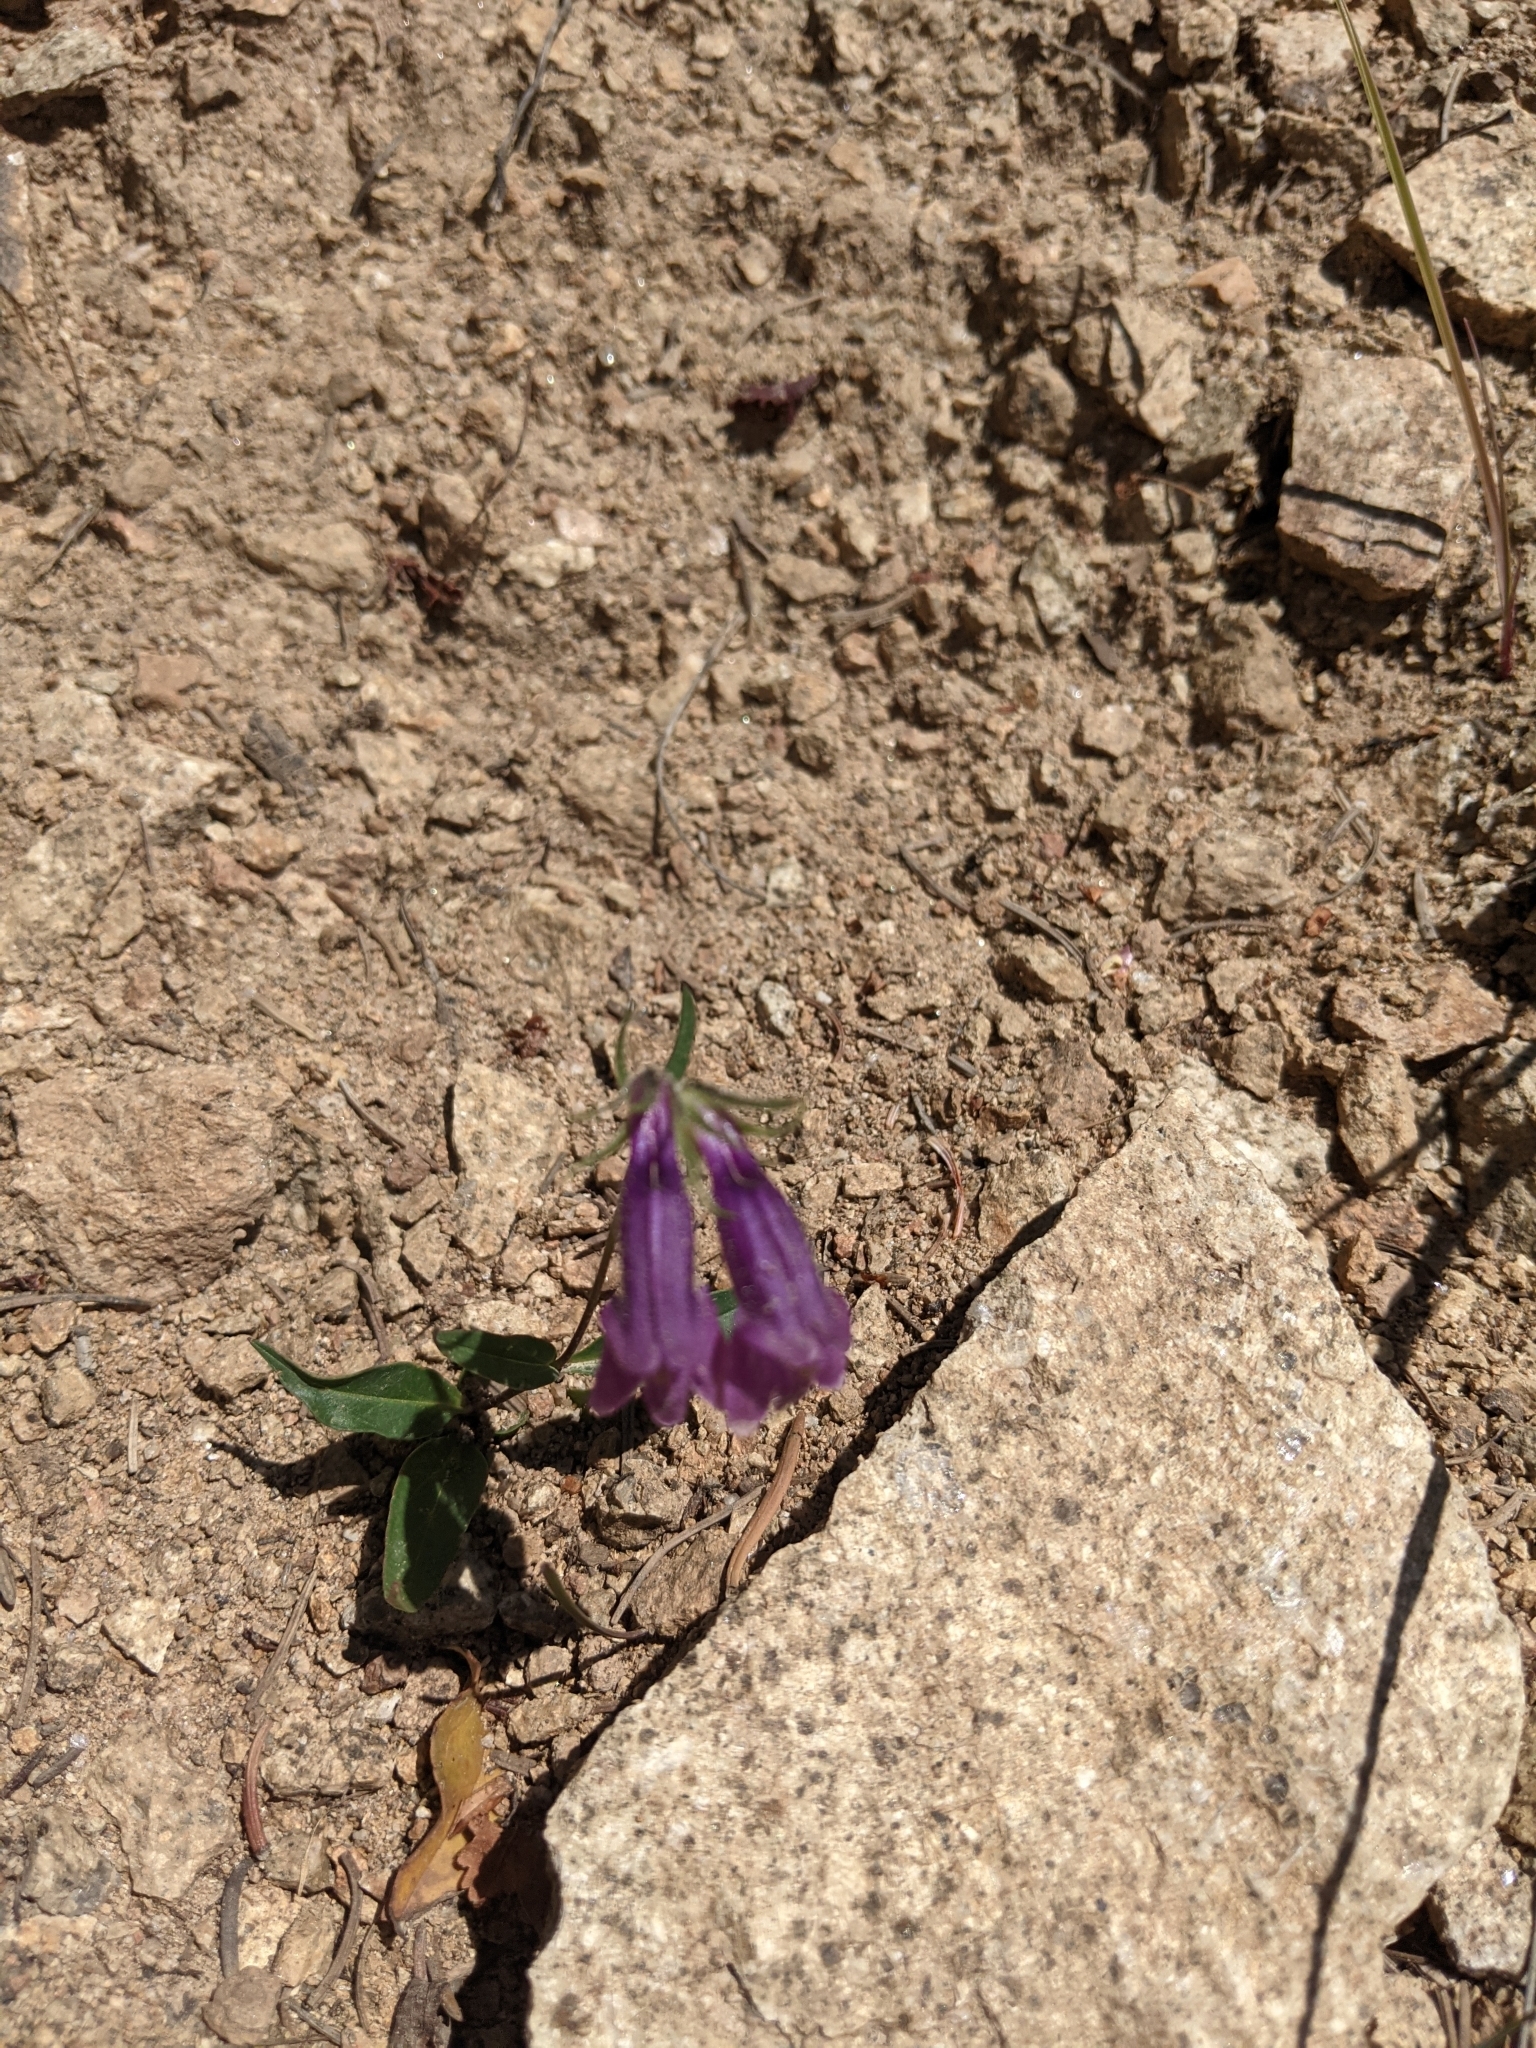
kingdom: Plantae
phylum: Tracheophyta
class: Magnoliopsida
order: Lamiales
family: Plantaginaceae
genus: Penstemon
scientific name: Penstemon whippleanus
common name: Whipple's penstemon
